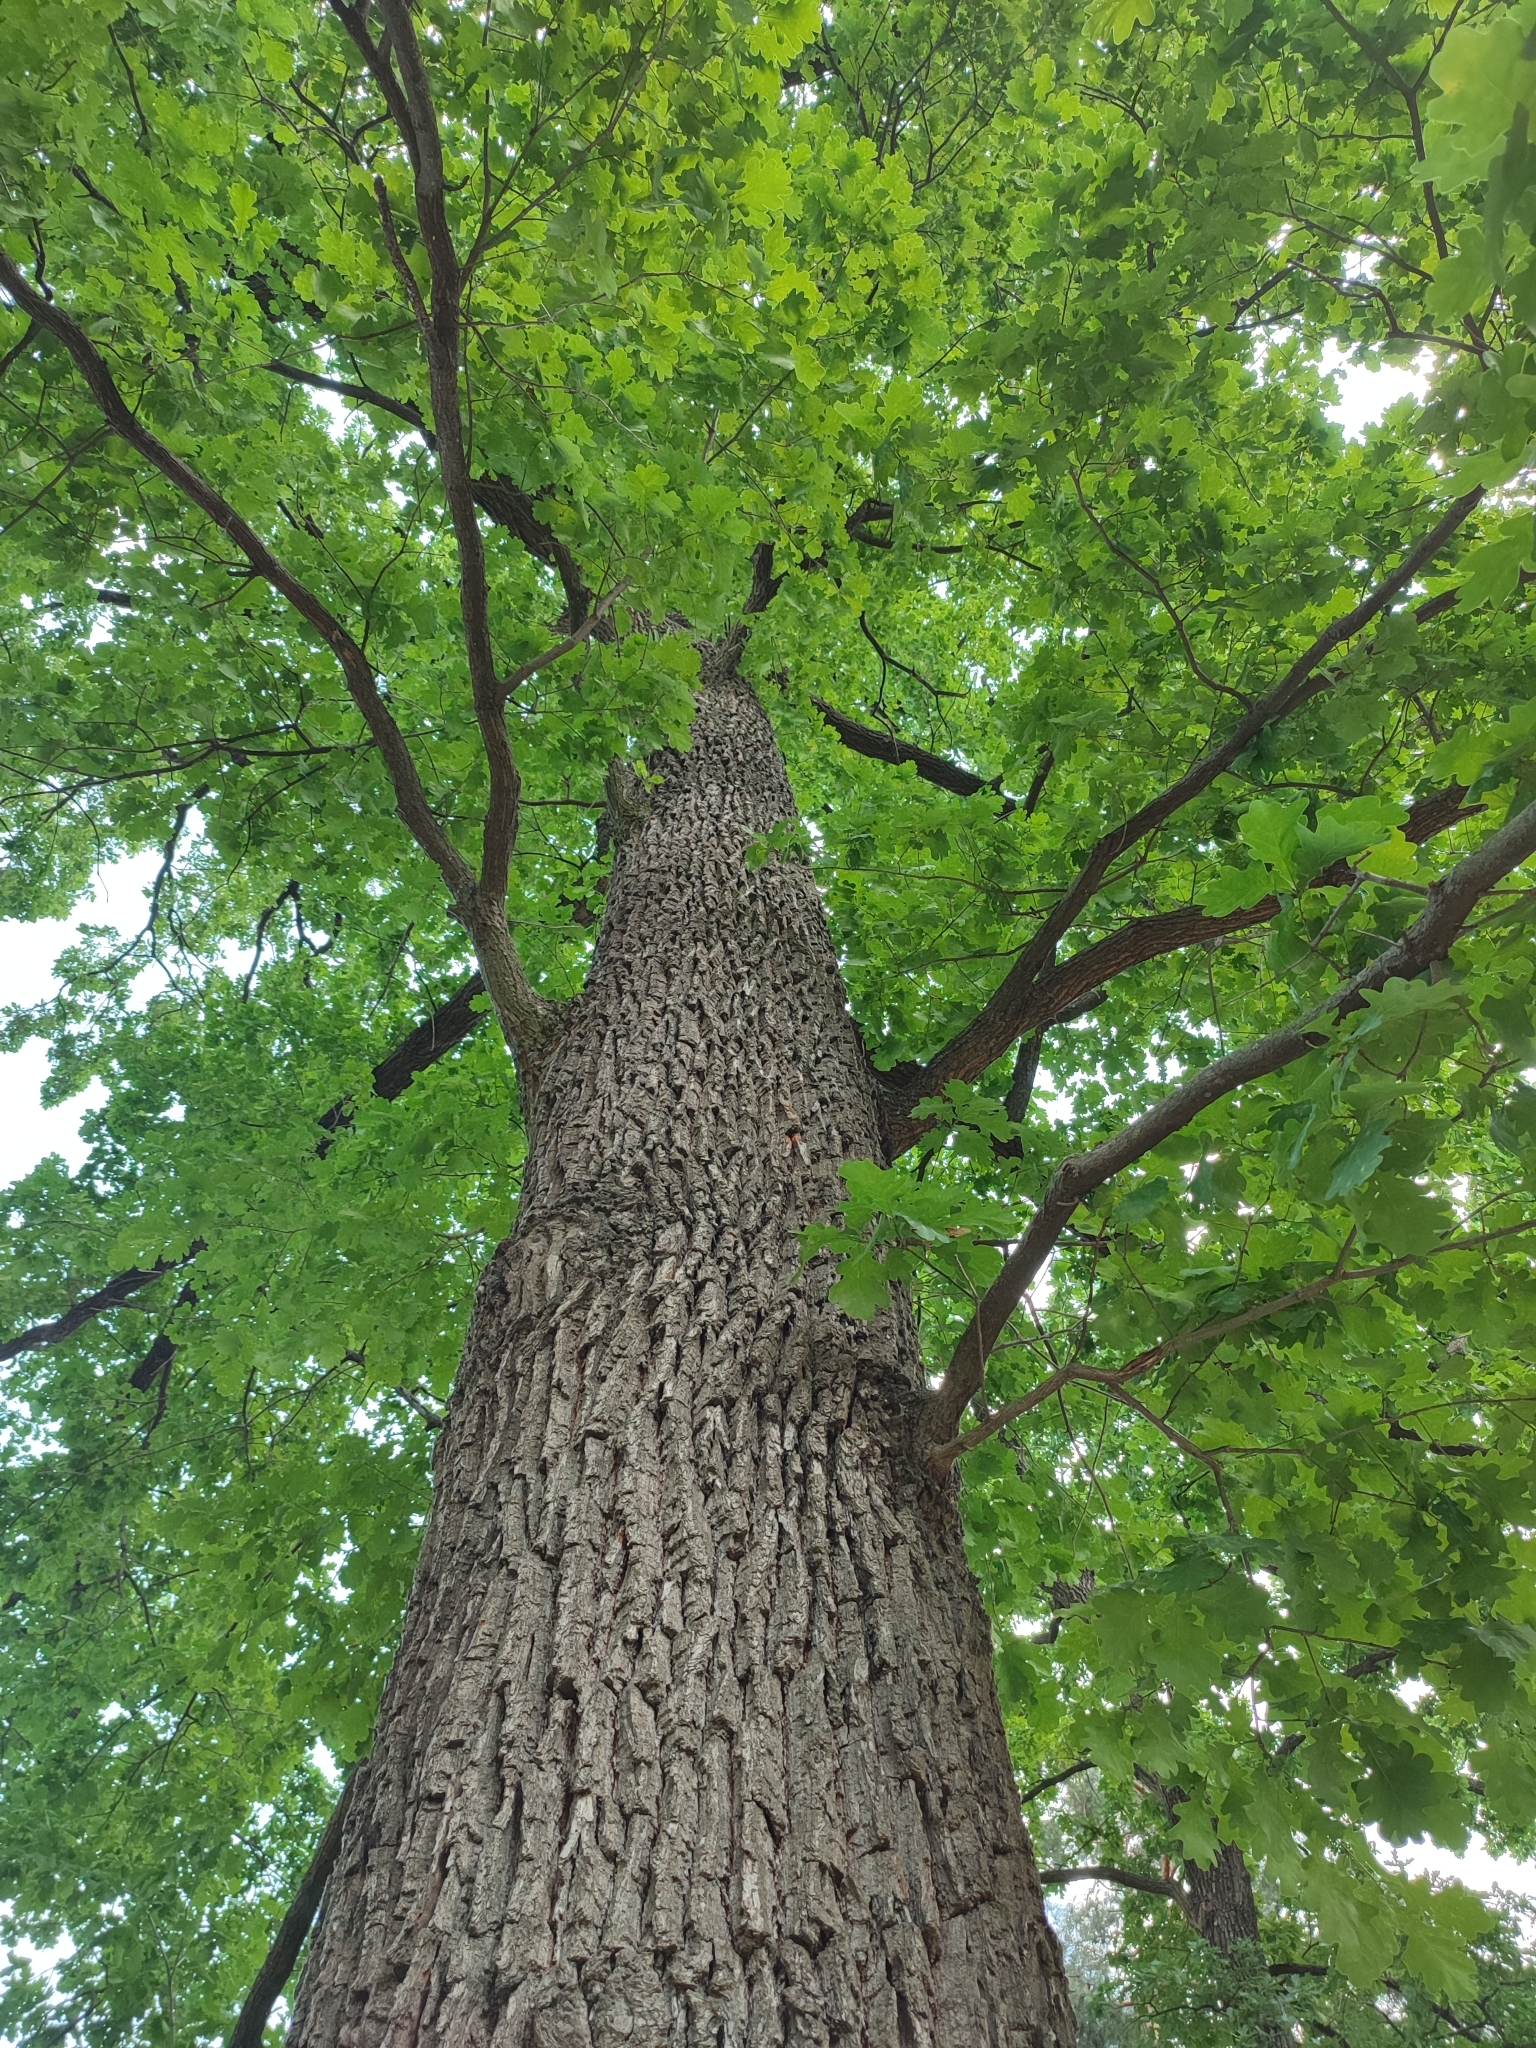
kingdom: Plantae
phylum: Tracheophyta
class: Magnoliopsida
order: Fagales
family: Fagaceae
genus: Quercus
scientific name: Quercus robur
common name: Pedunculate oak
